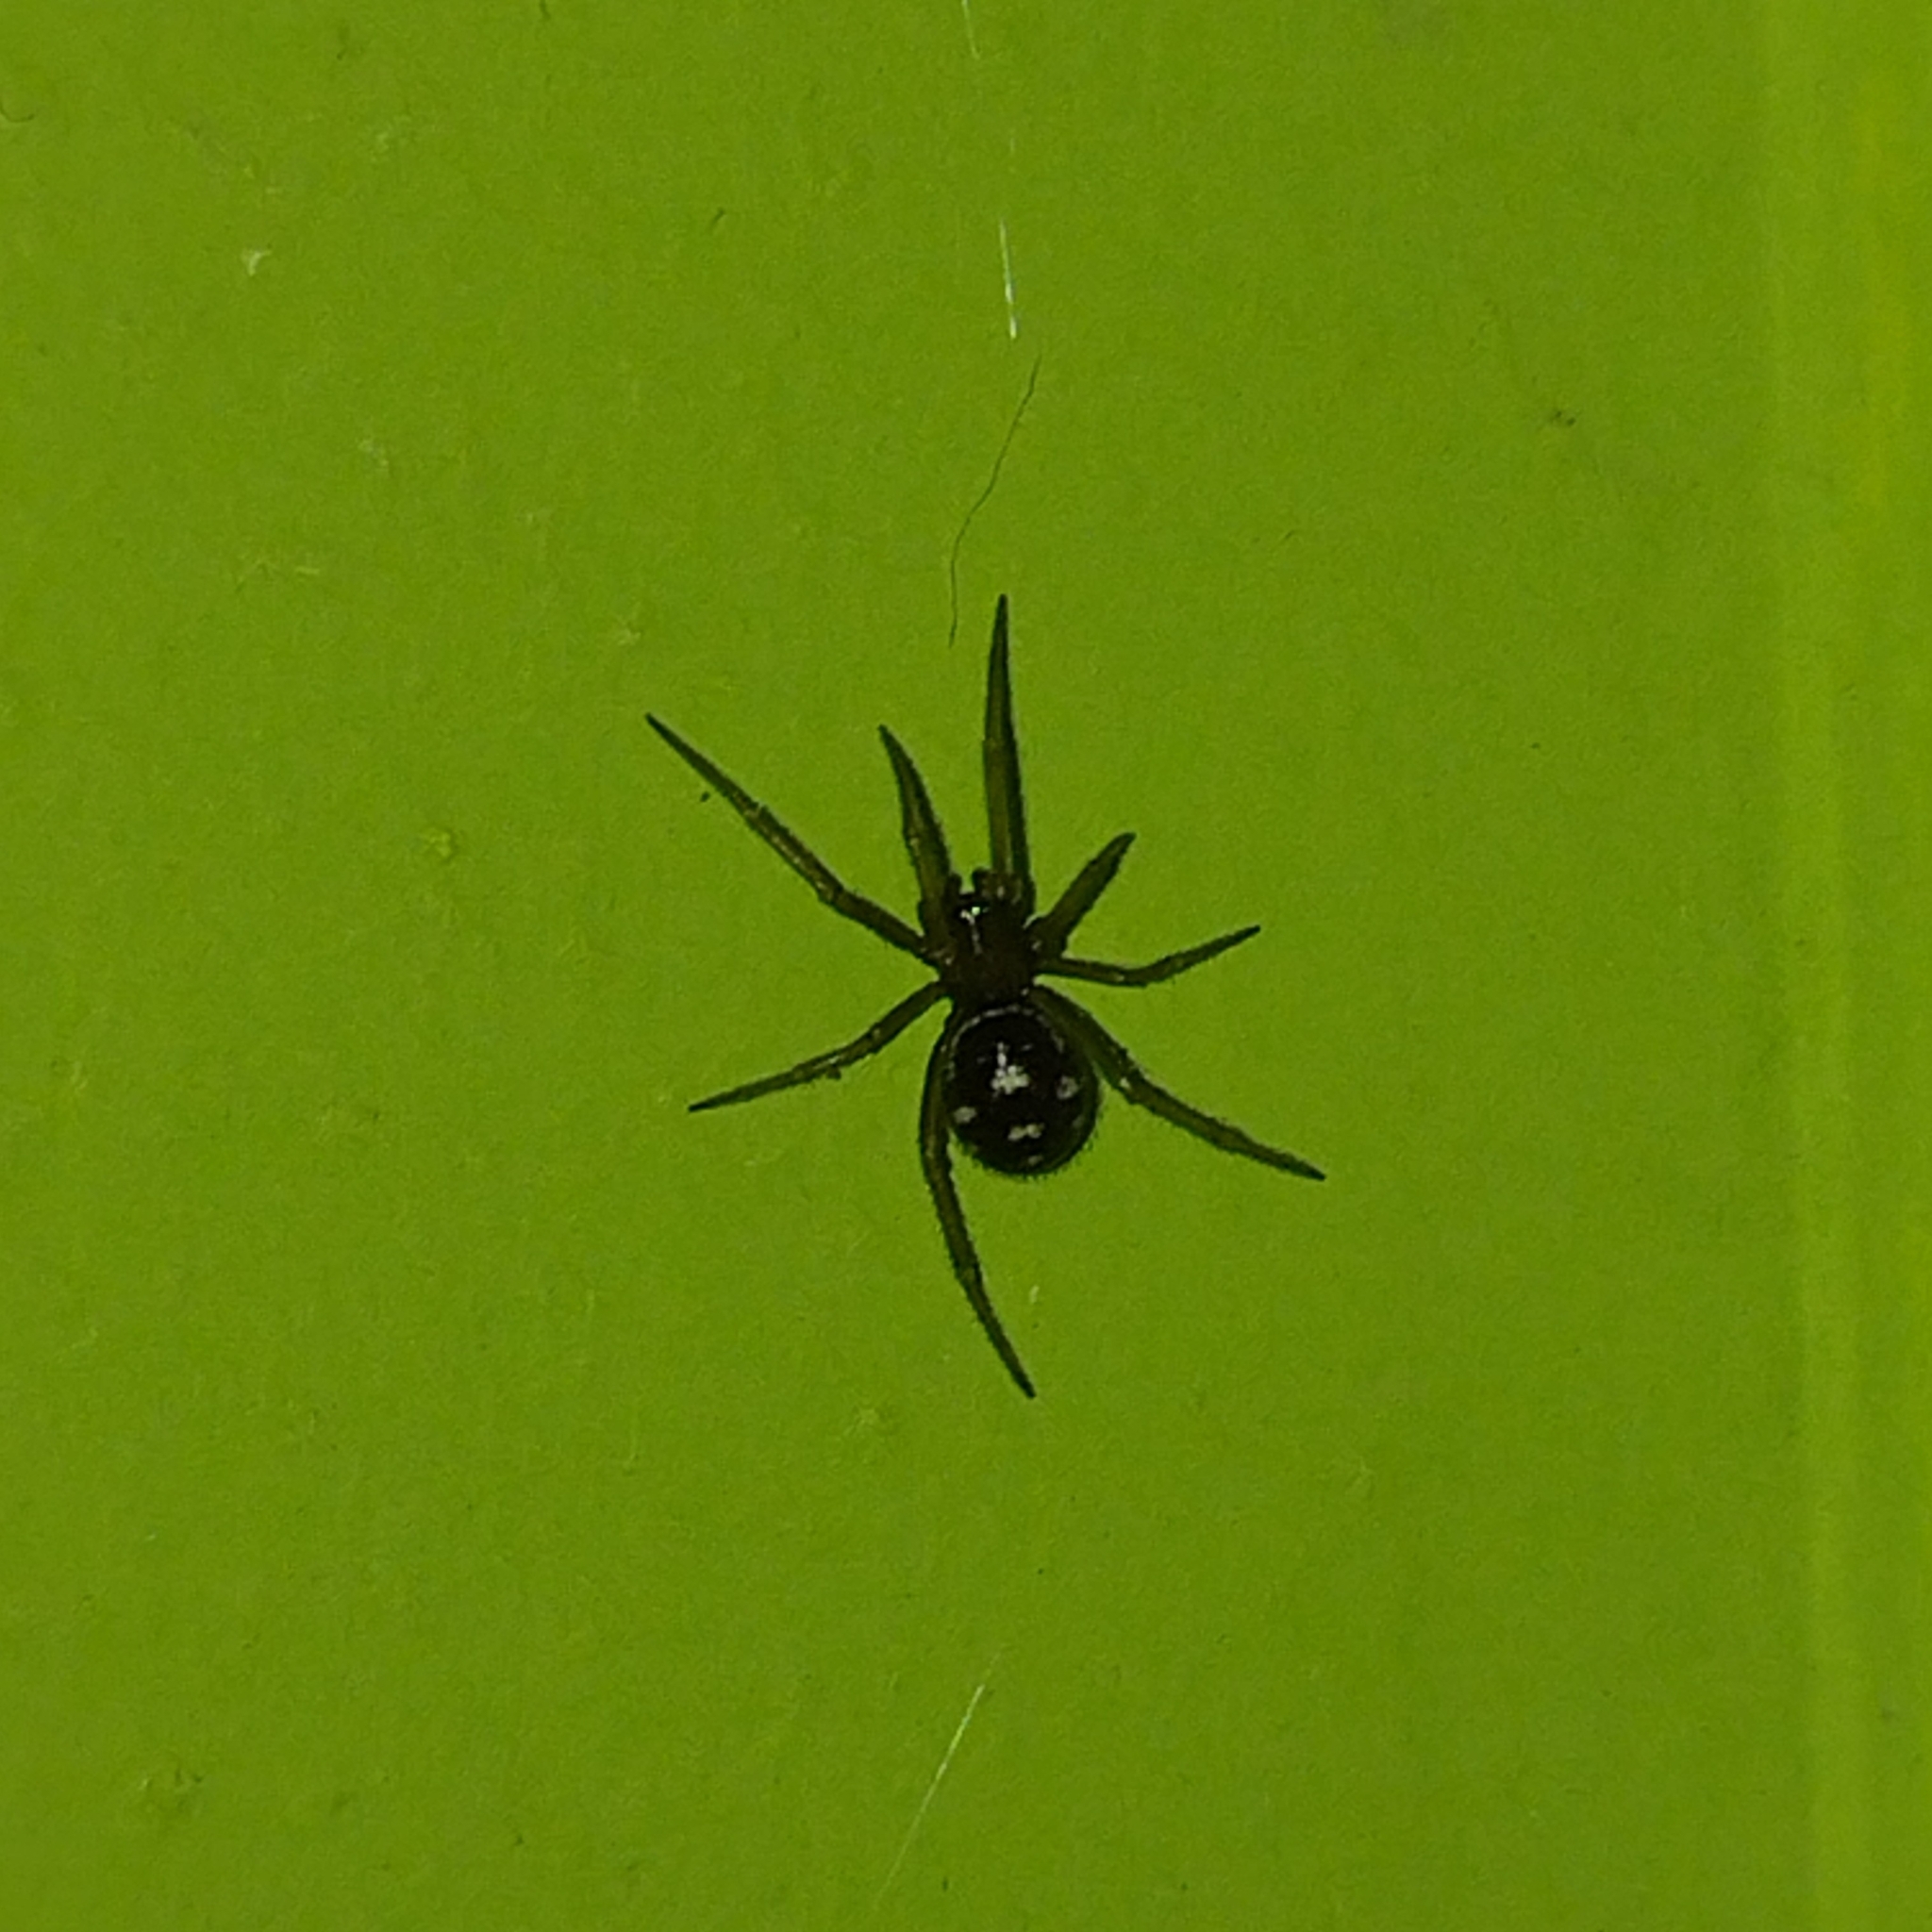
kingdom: Animalia
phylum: Arthropoda
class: Arachnida
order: Araneae
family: Theridiidae
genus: Steatoda
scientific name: Steatoda grossa
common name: False black widow
